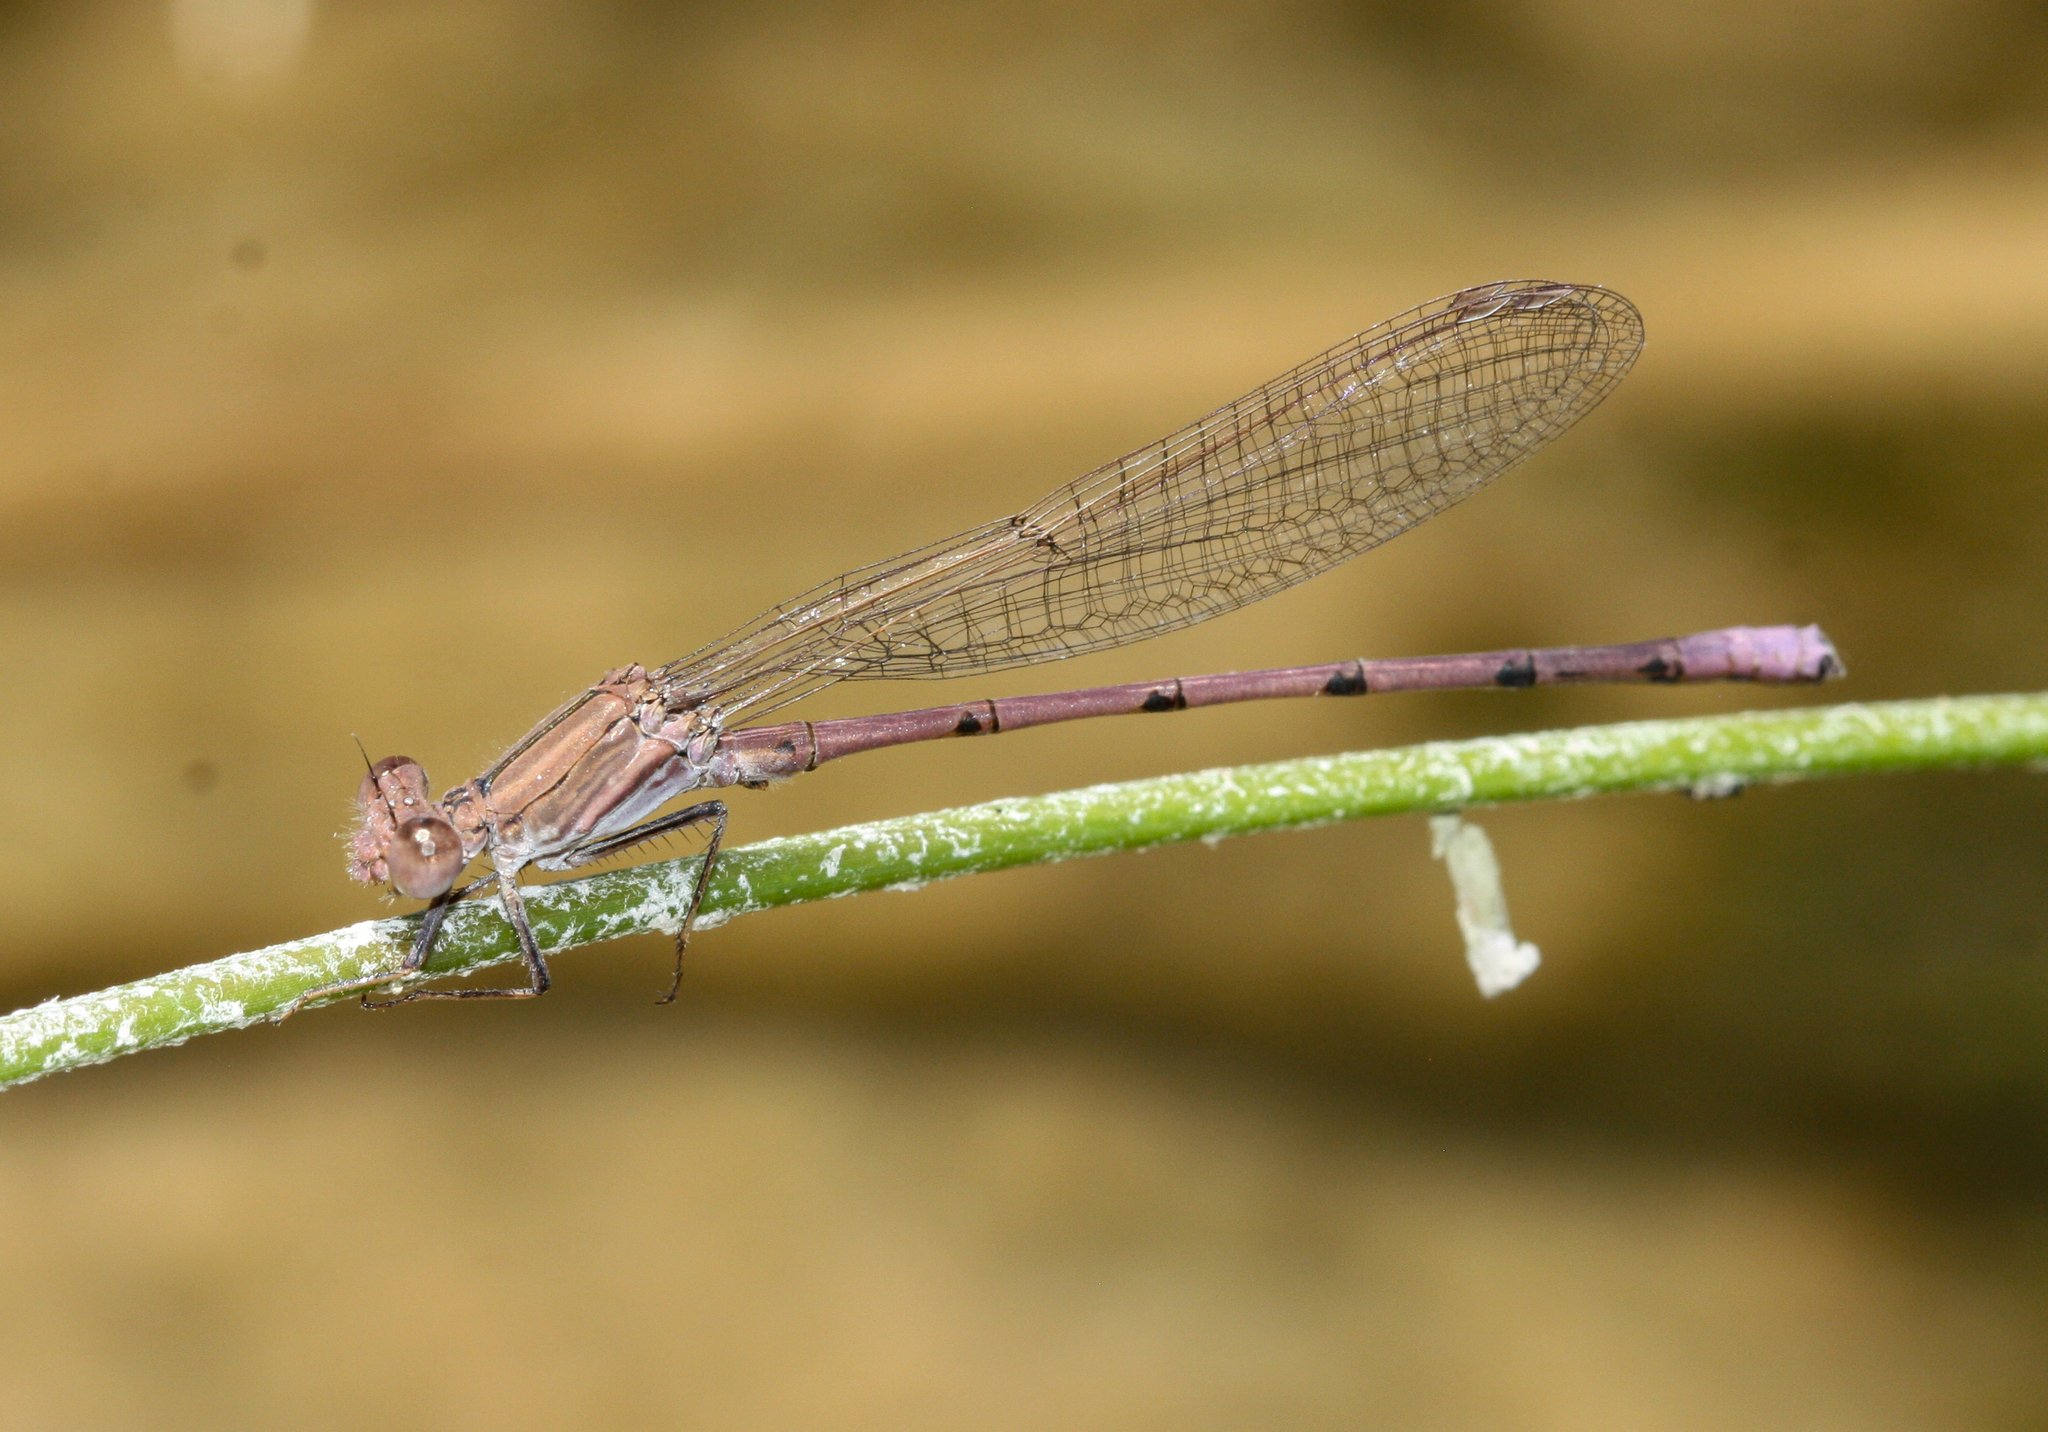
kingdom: Animalia
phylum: Arthropoda
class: Insecta
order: Odonata
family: Coenagrionidae
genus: Argia
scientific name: Argia pallens
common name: Amethyst dancer
